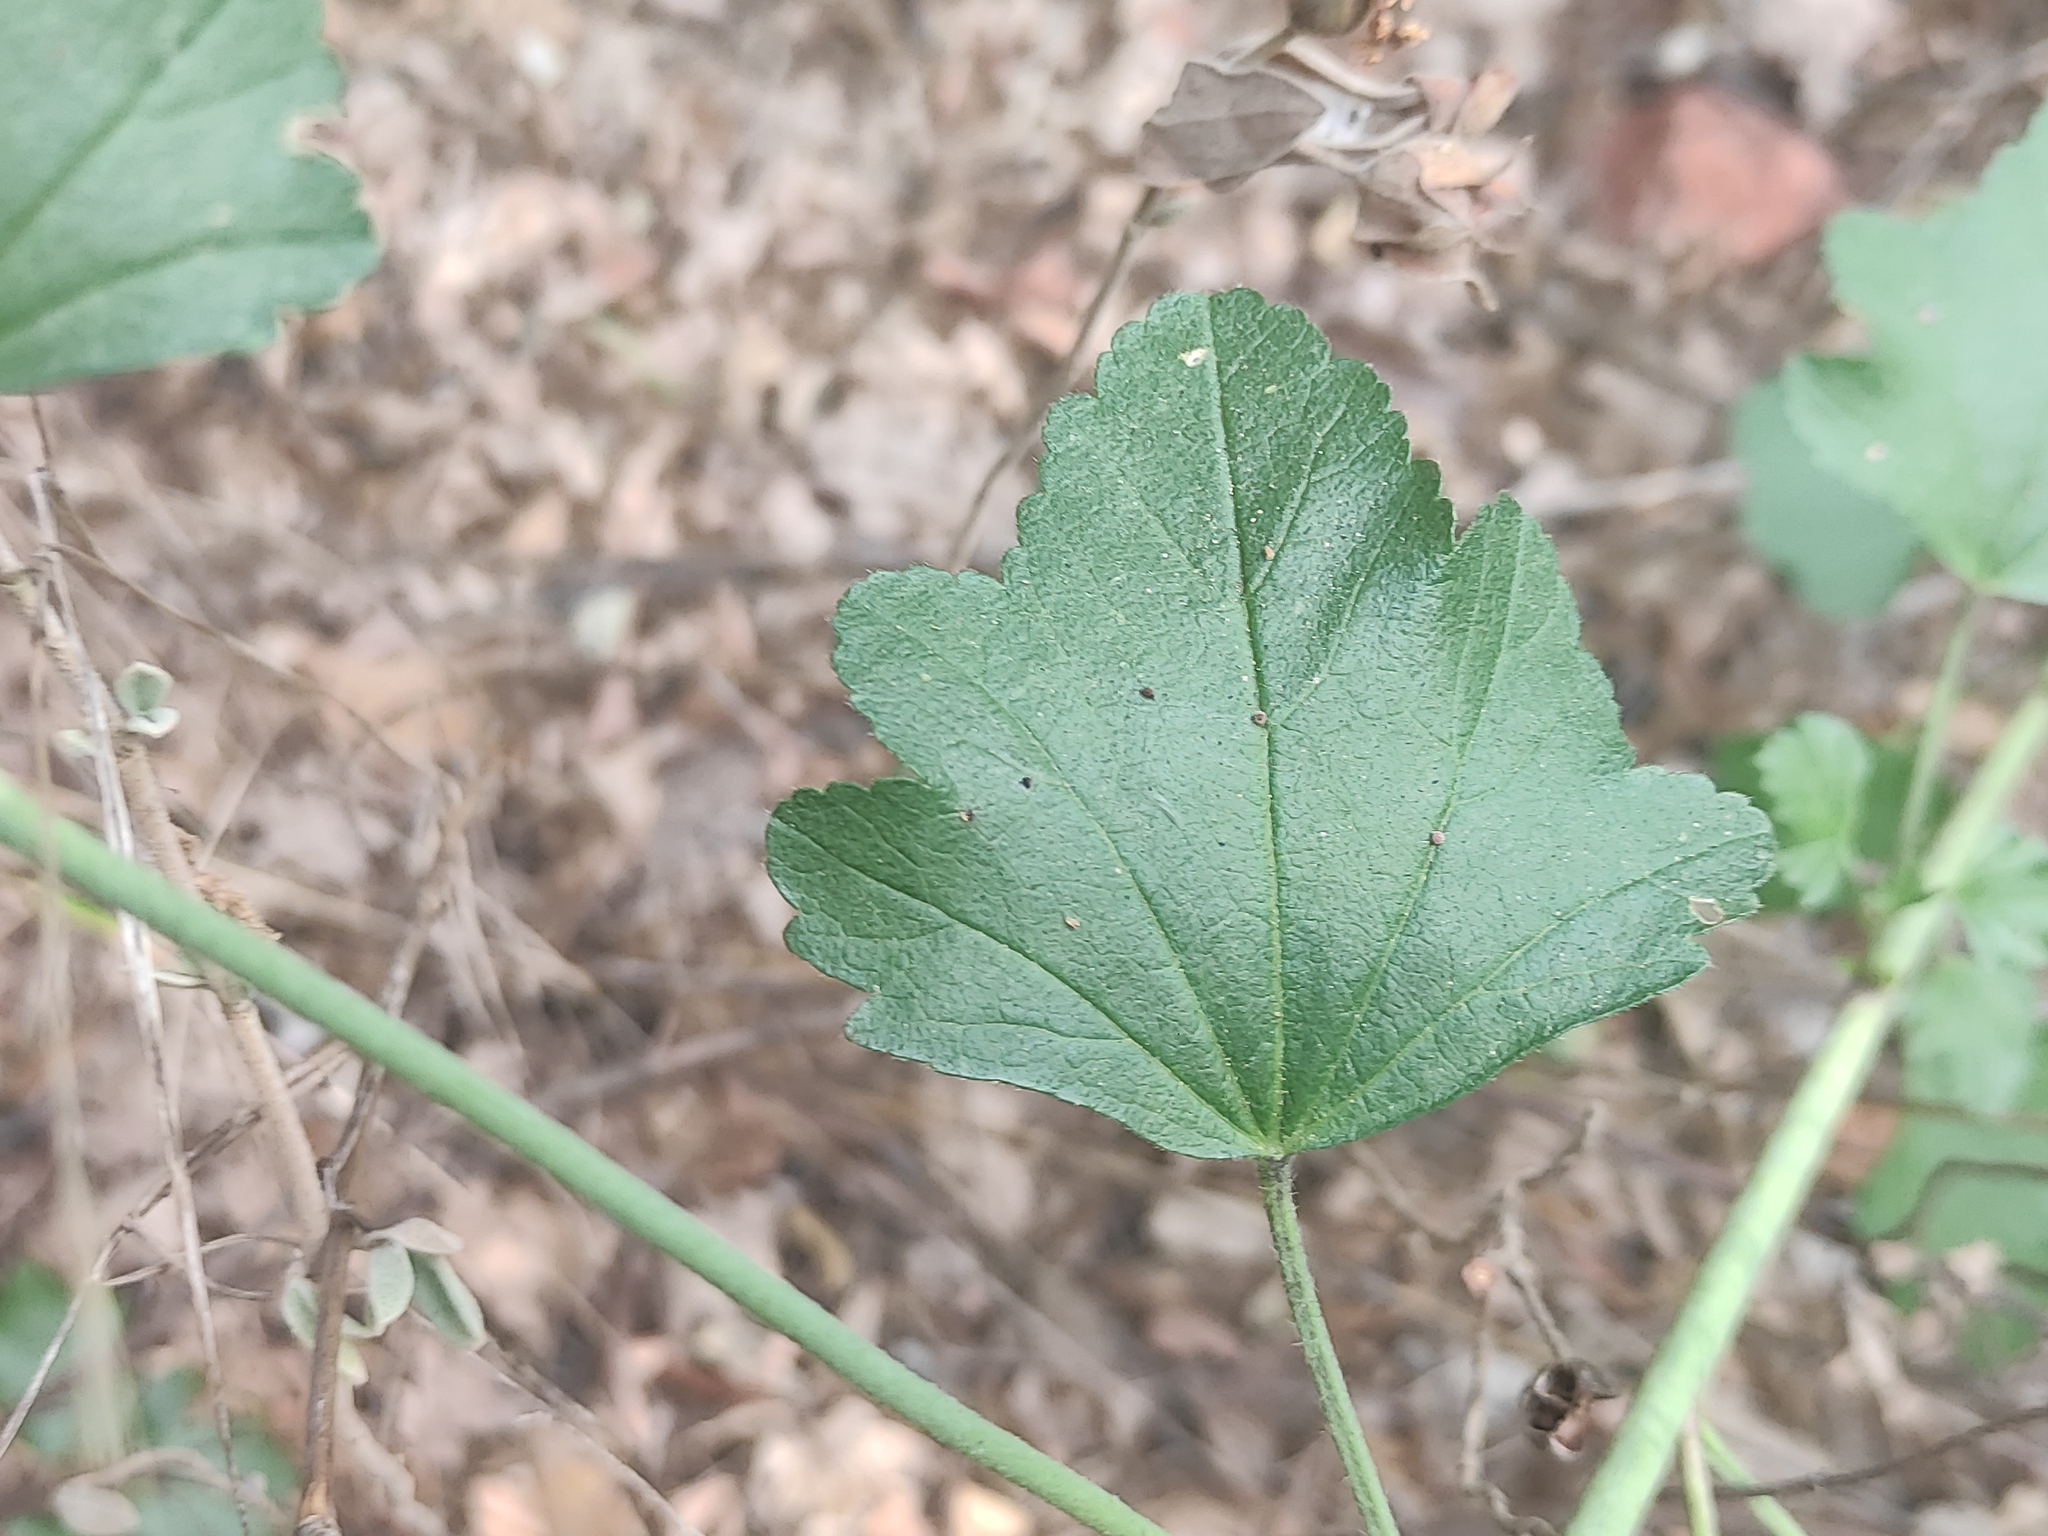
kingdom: Plantae
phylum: Tracheophyta
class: Magnoliopsida
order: Malvales
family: Malvaceae
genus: Malva
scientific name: Malva alcea
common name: Greater musk-mallow
